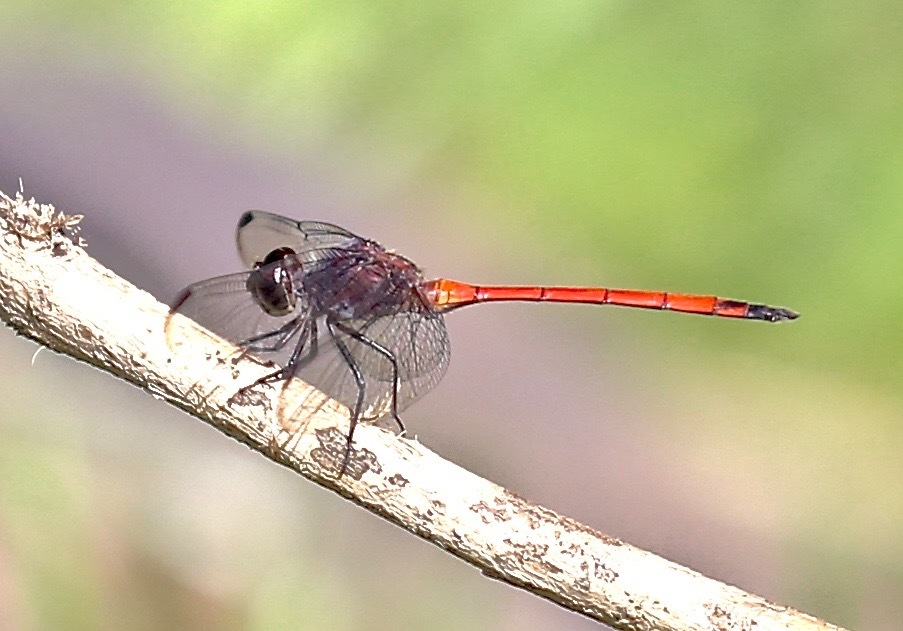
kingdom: Animalia
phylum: Arthropoda
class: Insecta
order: Odonata
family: Libellulidae
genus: Orthemis
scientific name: Orthemis levis
